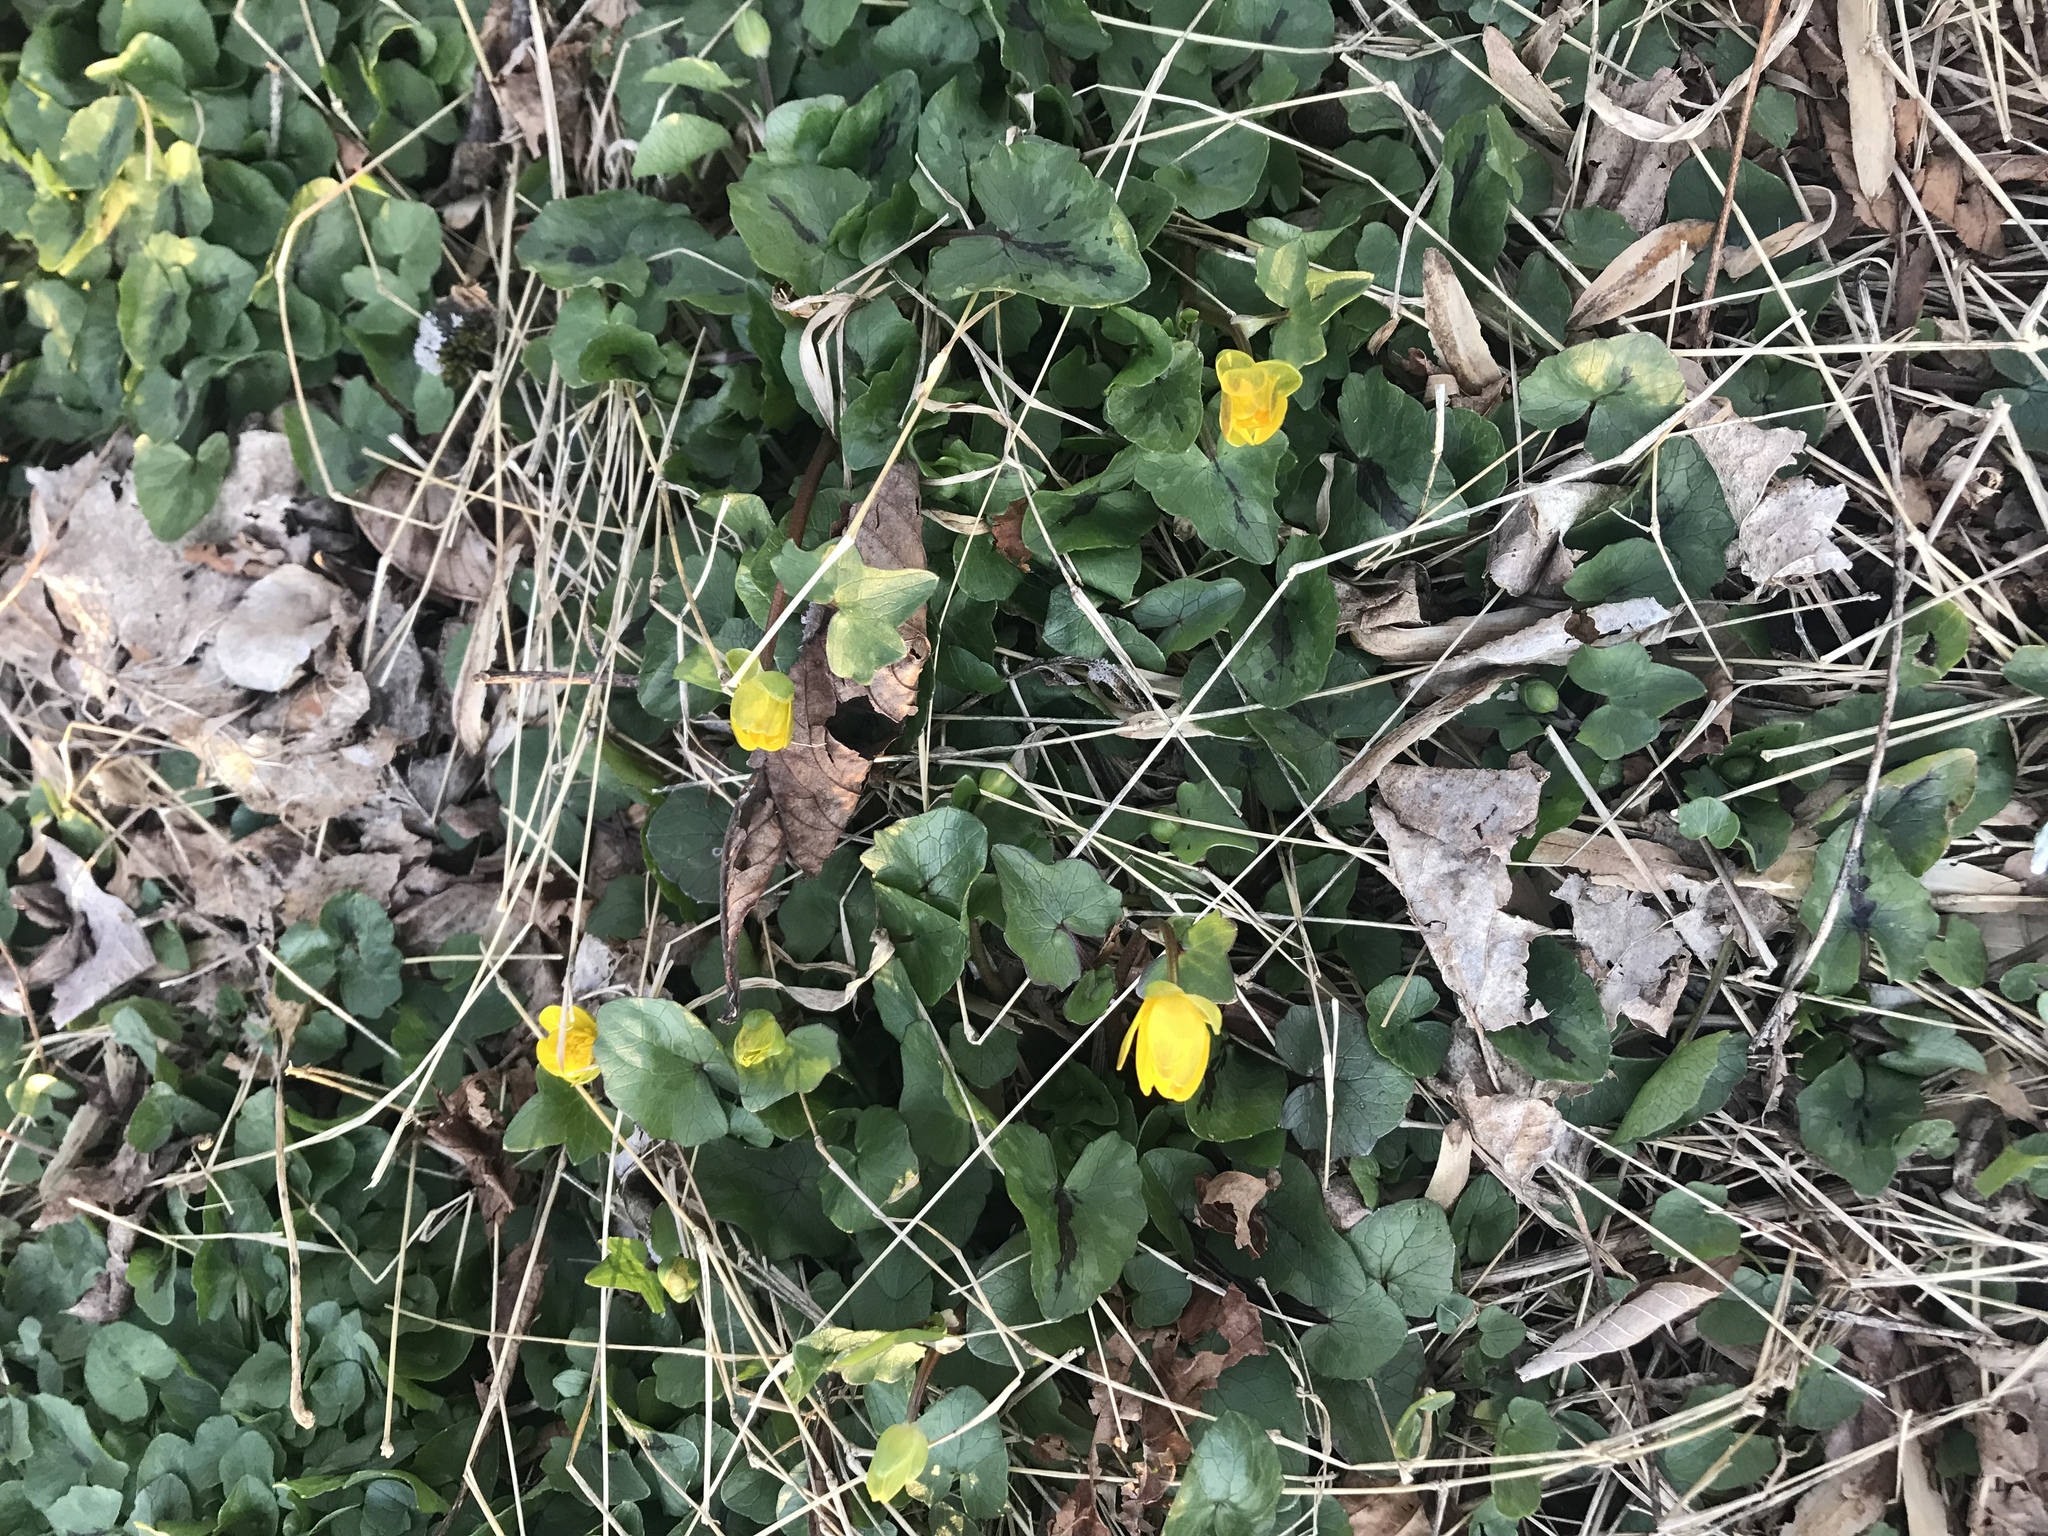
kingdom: Plantae
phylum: Tracheophyta
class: Magnoliopsida
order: Ranunculales
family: Ranunculaceae
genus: Ficaria
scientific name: Ficaria verna
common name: Lesser celandine
